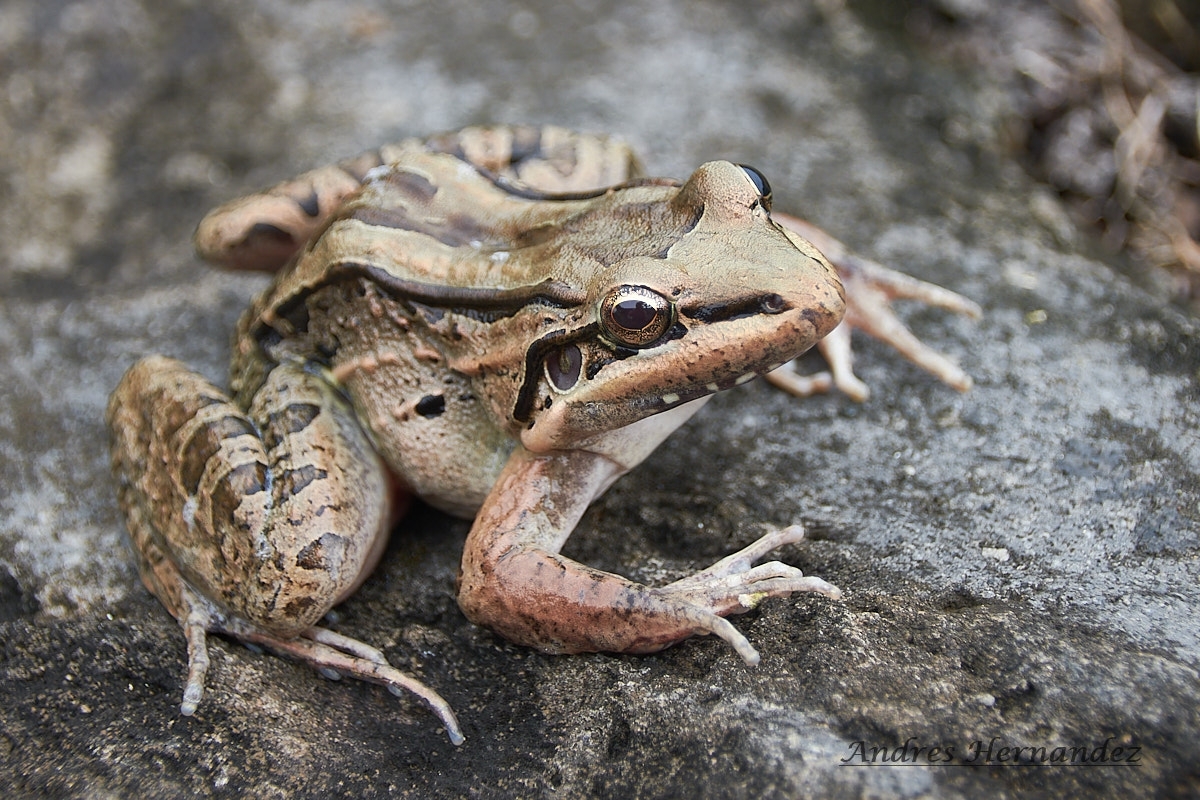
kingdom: Animalia
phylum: Chordata
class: Amphibia
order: Anura
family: Leptodactylidae
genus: Leptodactylus
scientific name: Leptodactylus insularum
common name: San miguel island frog
